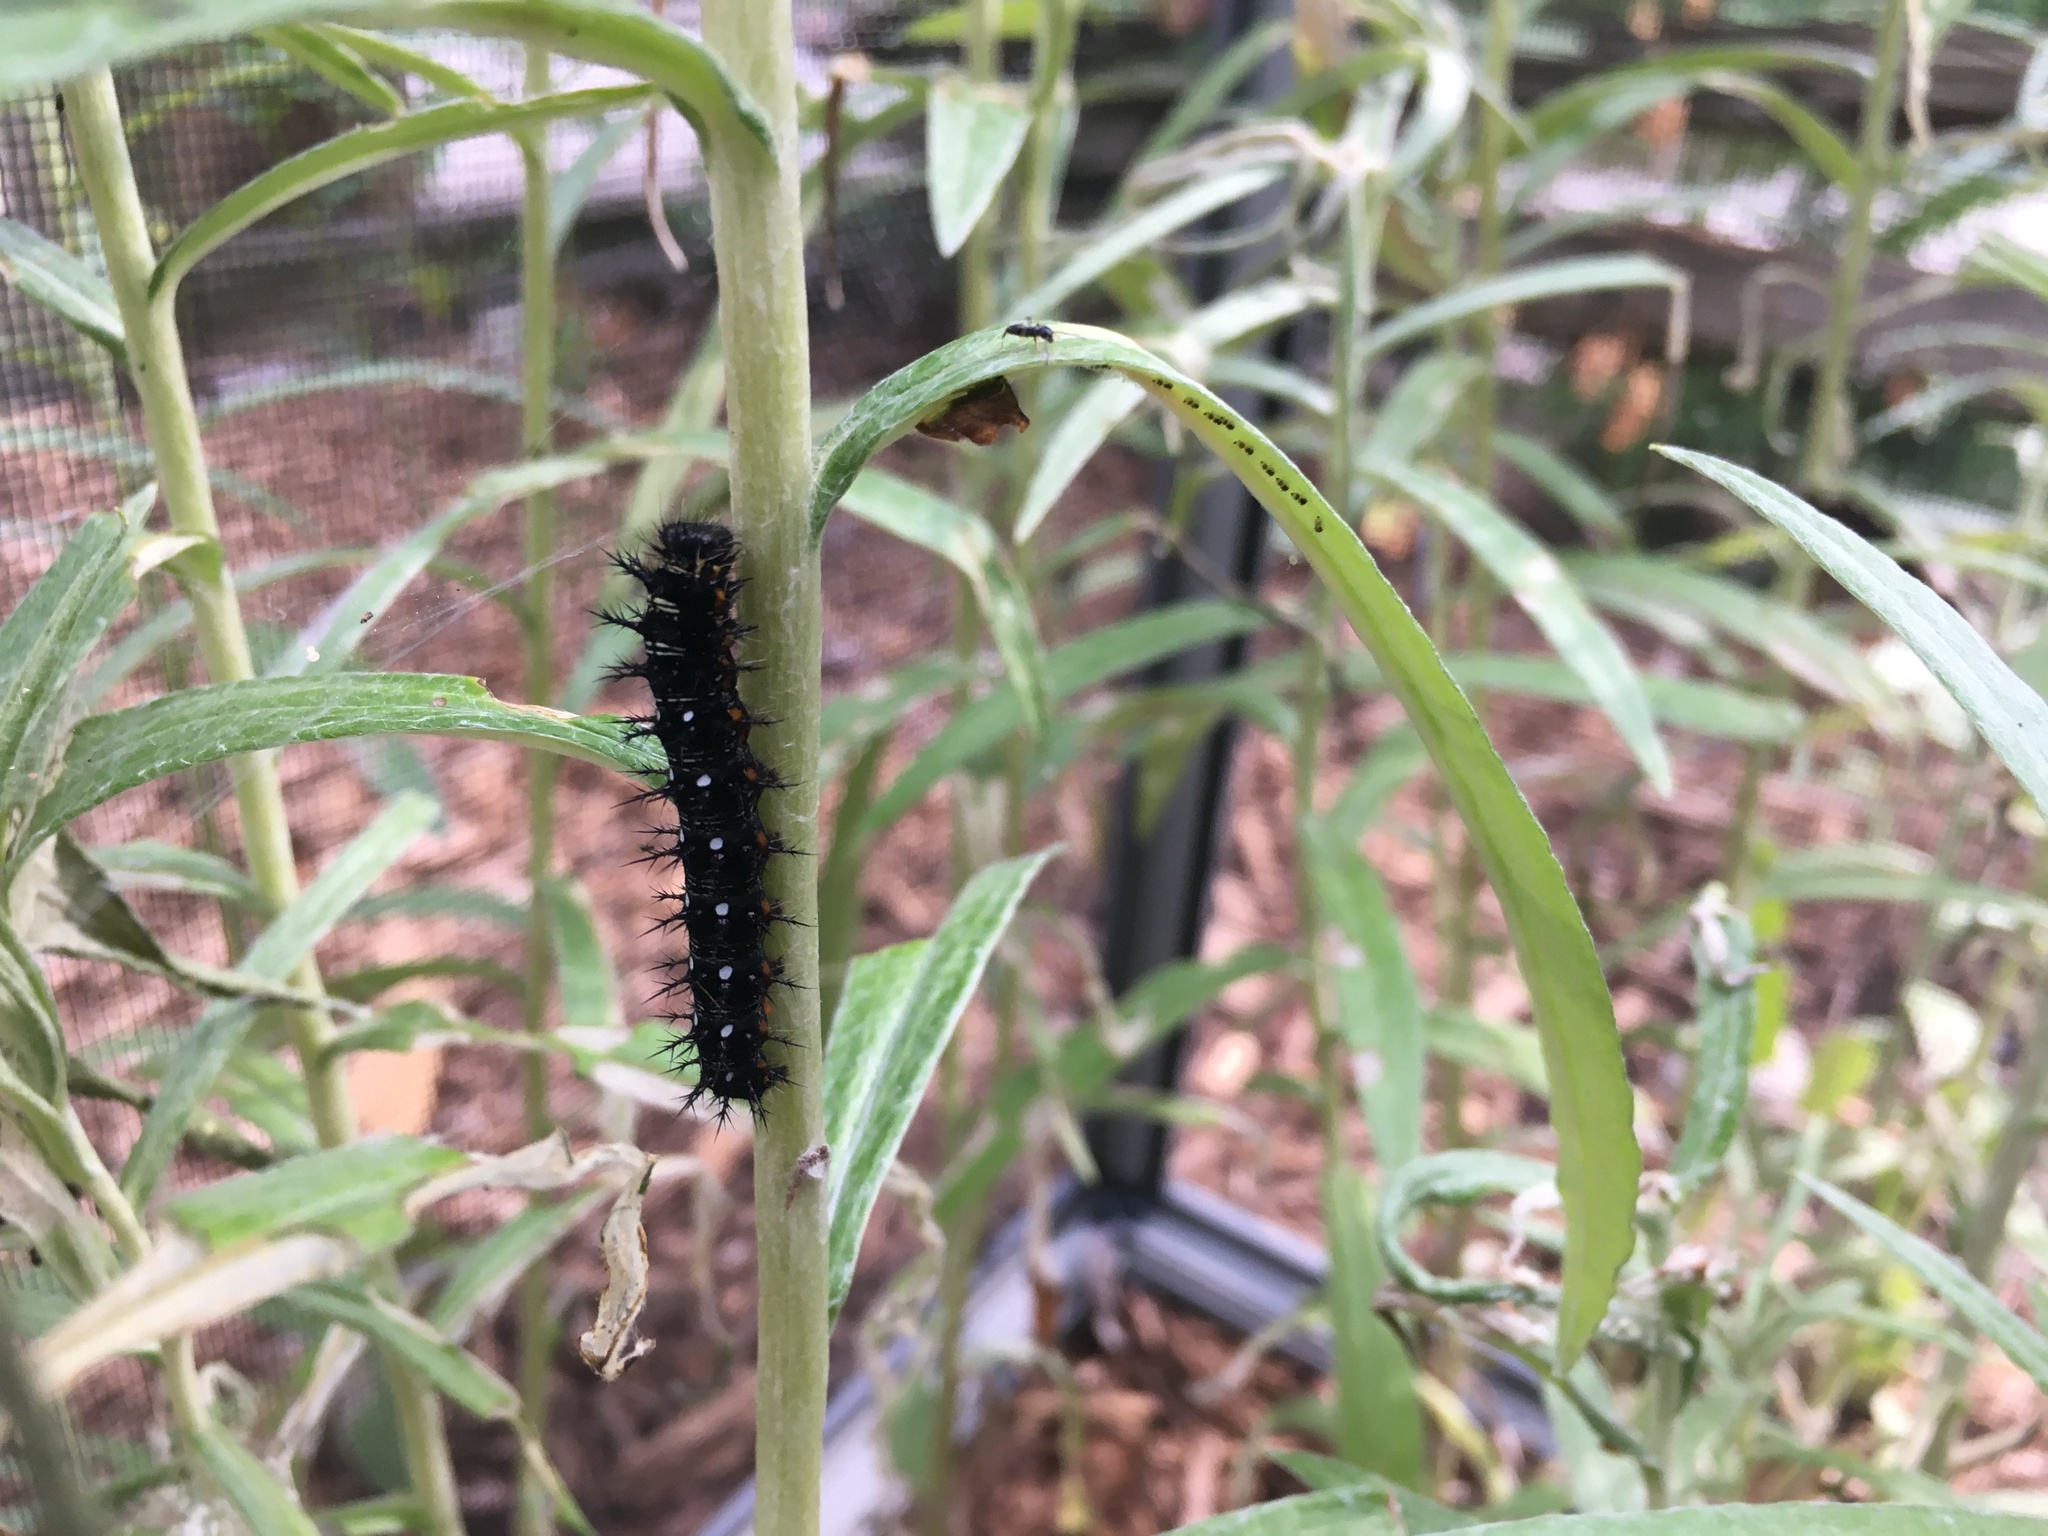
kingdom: Animalia
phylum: Arthropoda
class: Insecta
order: Lepidoptera
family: Nymphalidae
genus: Vanessa
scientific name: Vanessa virginiensis
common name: American lady
